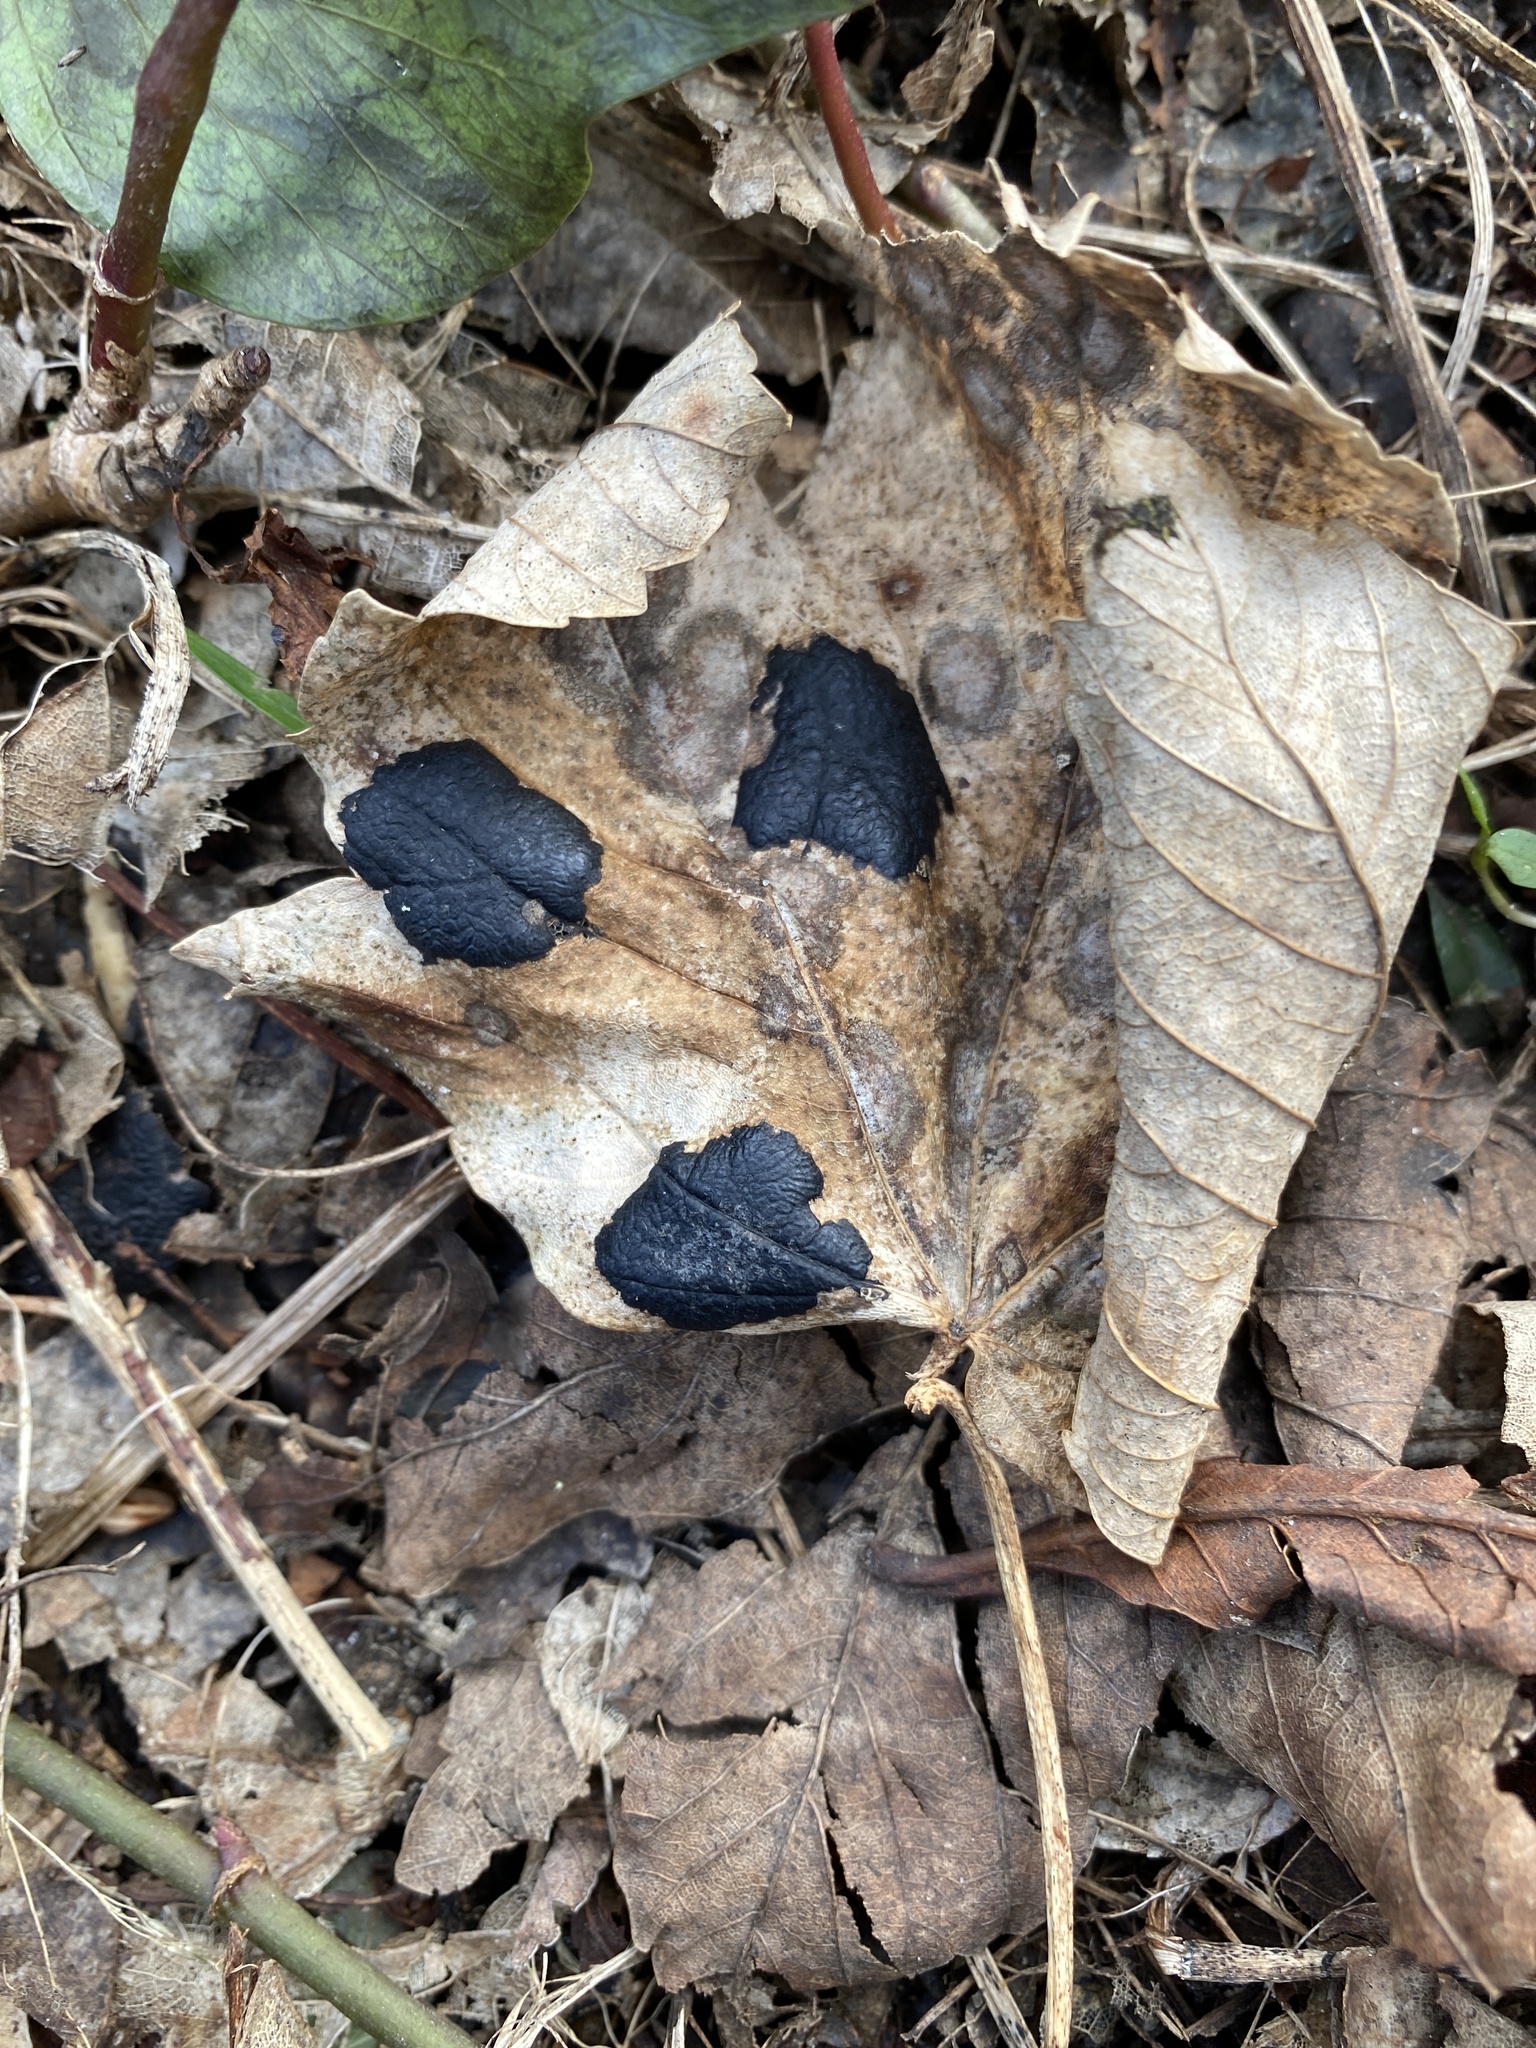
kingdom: Fungi
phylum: Ascomycota
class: Leotiomycetes
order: Rhytismatales
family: Rhytismataceae
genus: Rhytisma
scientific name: Rhytisma acerinum
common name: European tar spot
